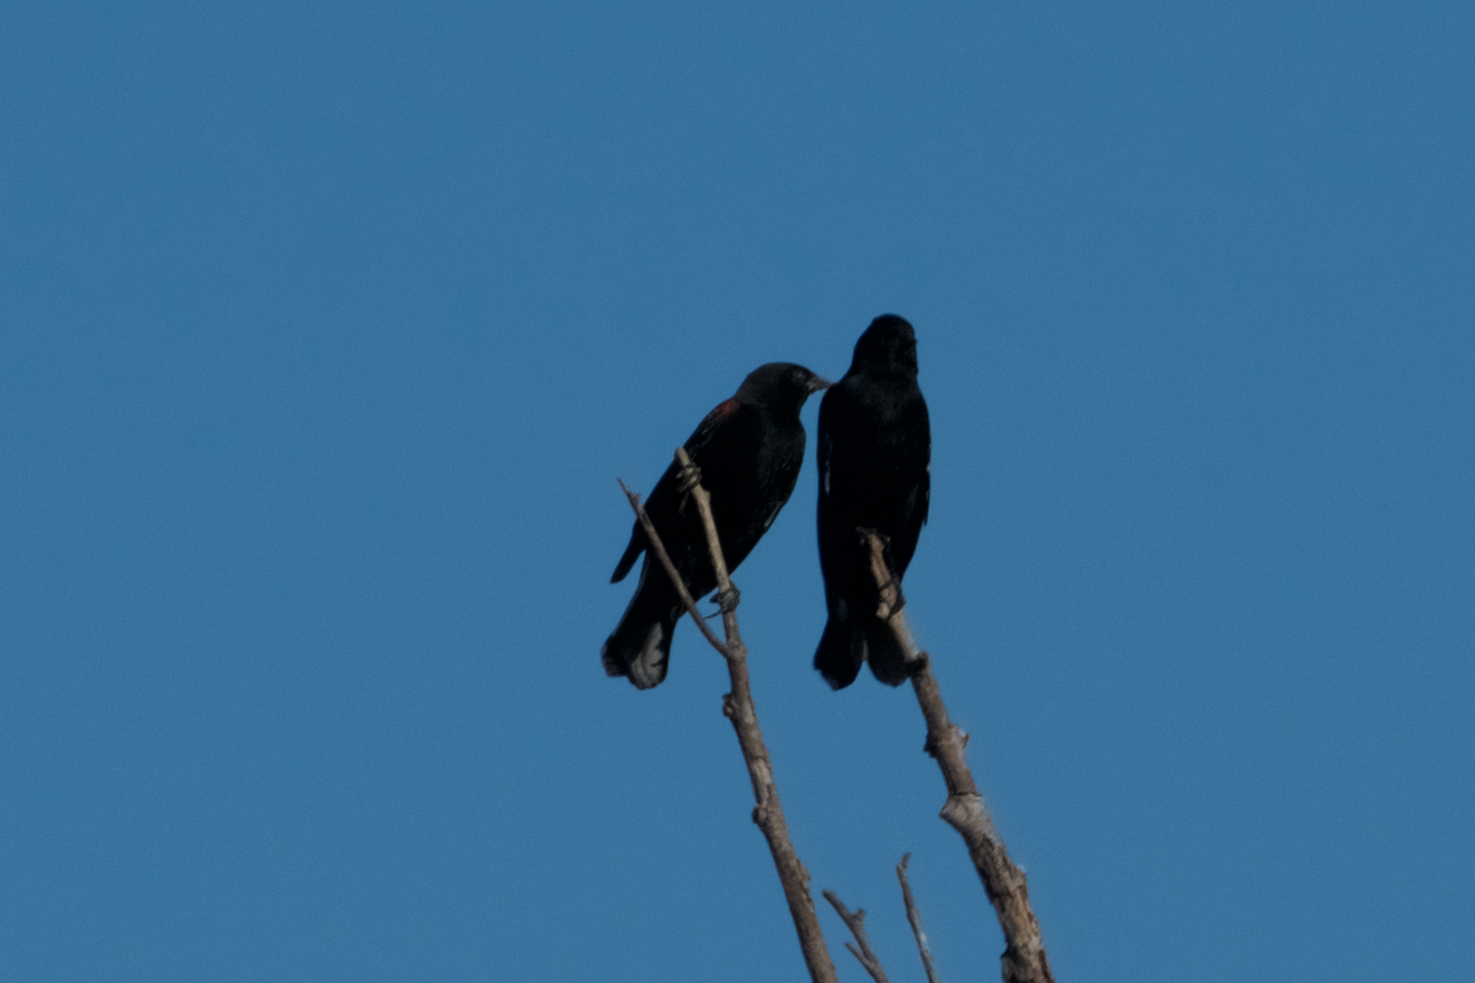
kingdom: Animalia
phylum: Chordata
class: Aves
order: Passeriformes
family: Icteridae
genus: Agelaius
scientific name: Agelaius phoeniceus
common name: Red-winged blackbird
